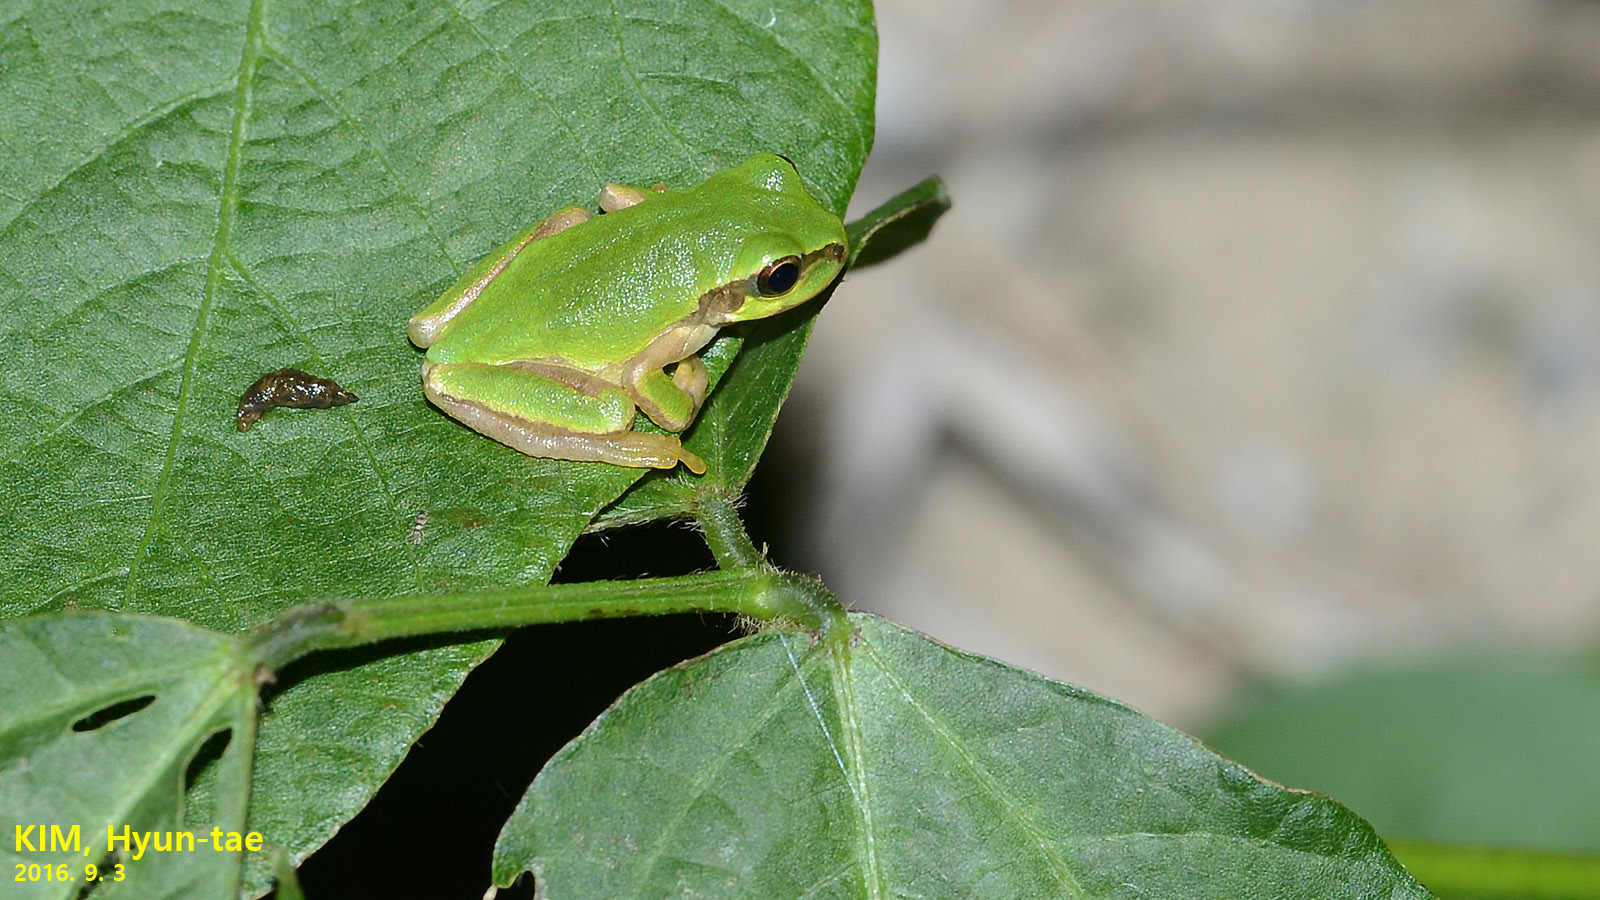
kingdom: Animalia
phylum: Chordata
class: Amphibia
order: Anura
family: Hylidae
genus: Dryophytes
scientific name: Dryophytes japonicus
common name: Japanese treefrog
